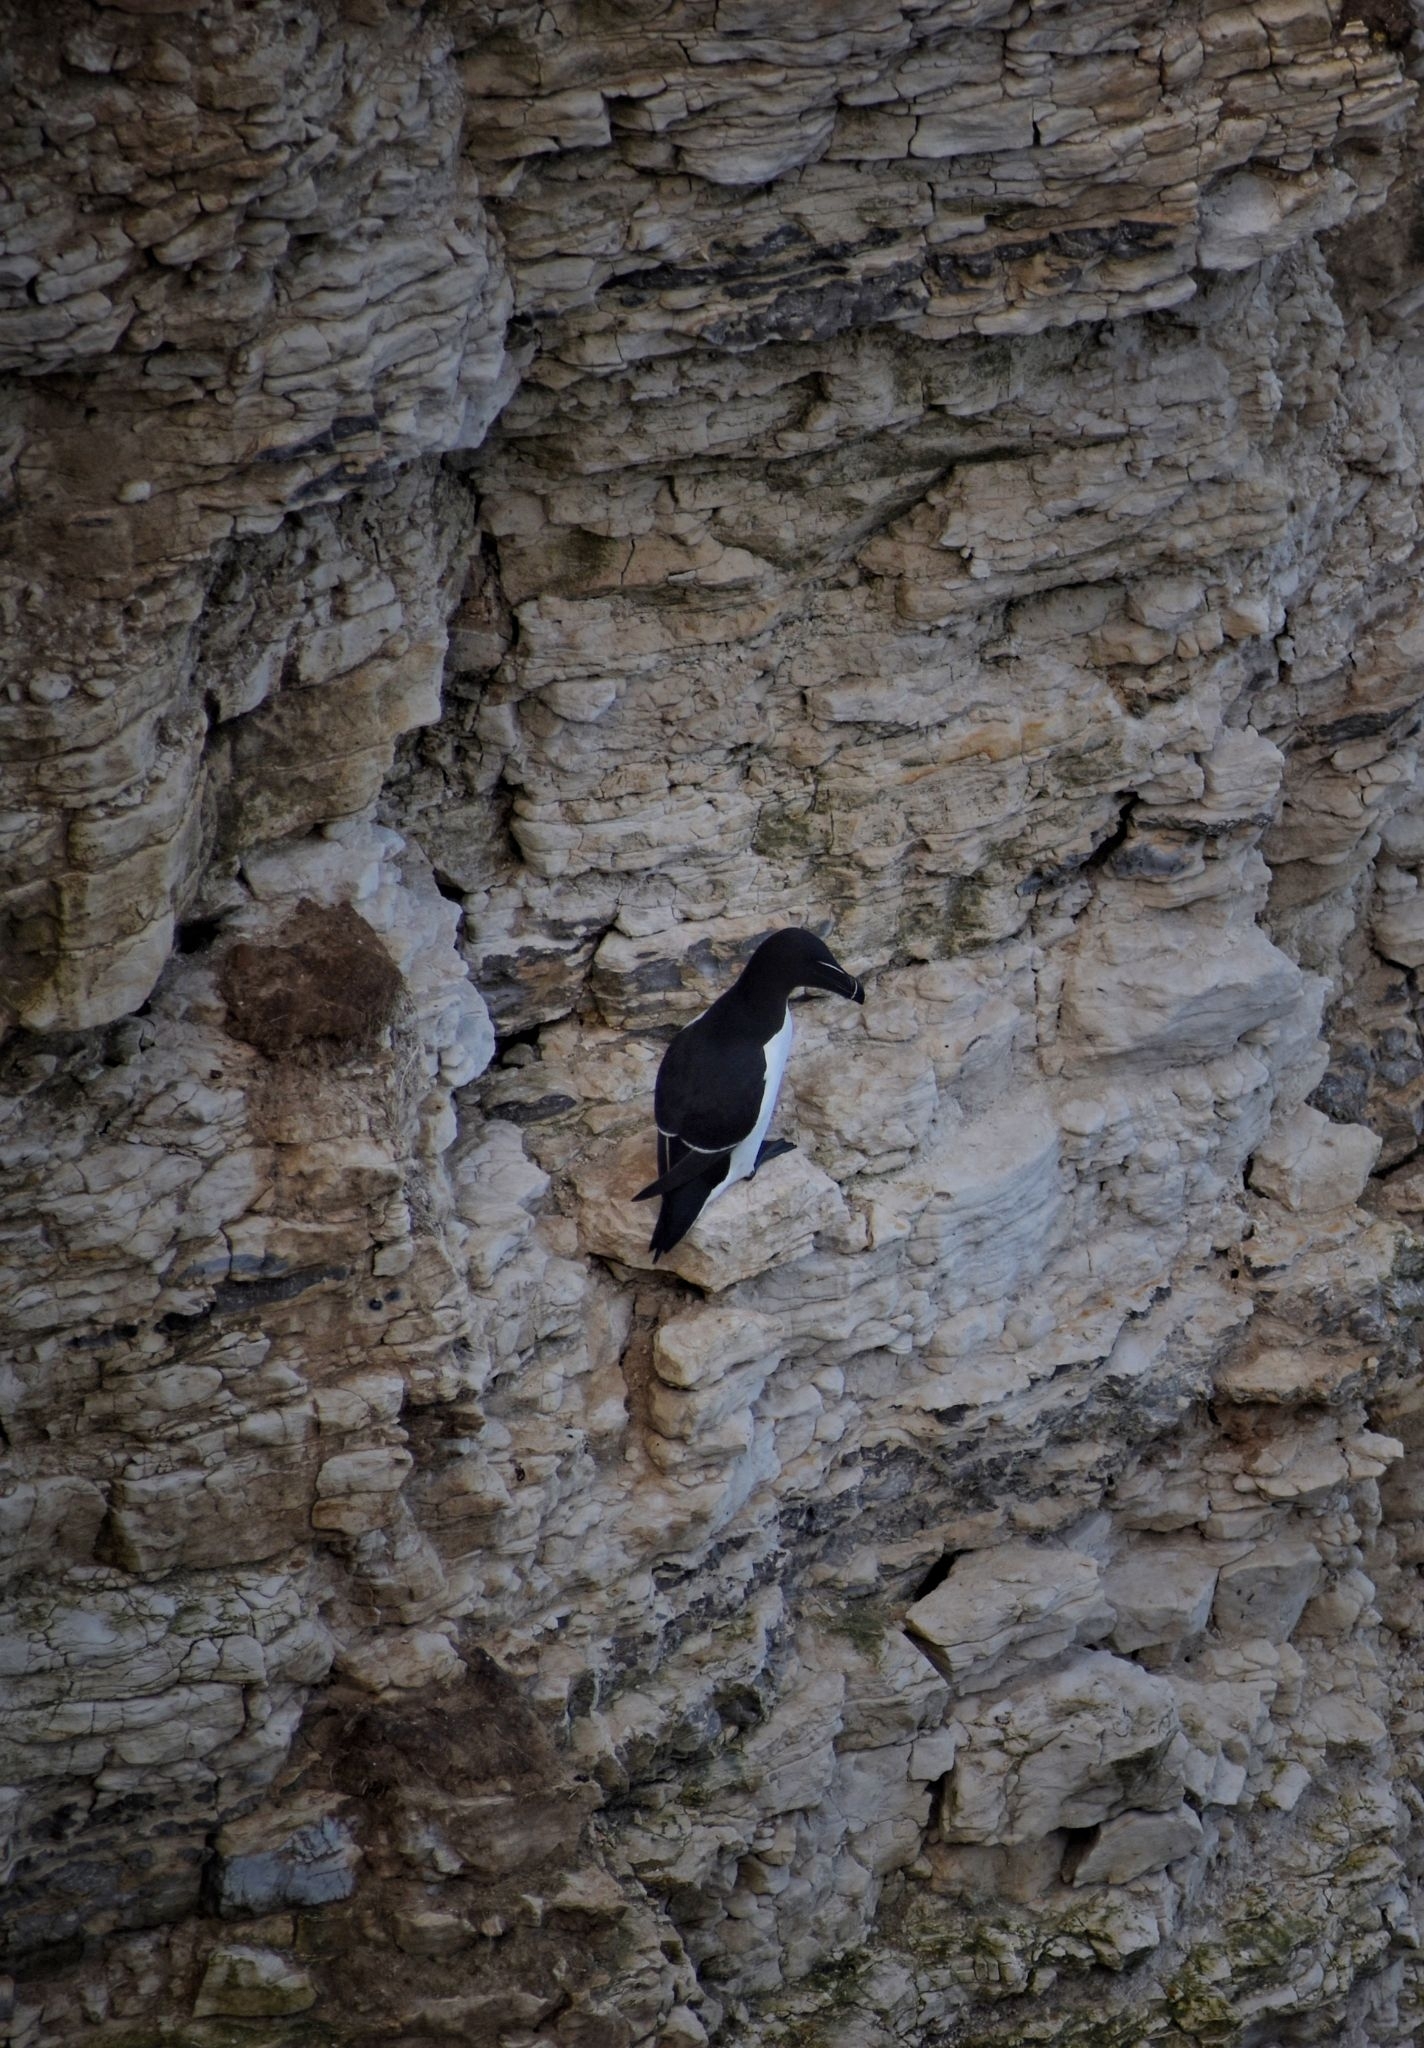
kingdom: Animalia
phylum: Chordata
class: Aves
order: Charadriiformes
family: Alcidae
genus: Alca
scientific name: Alca torda
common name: Razorbill
